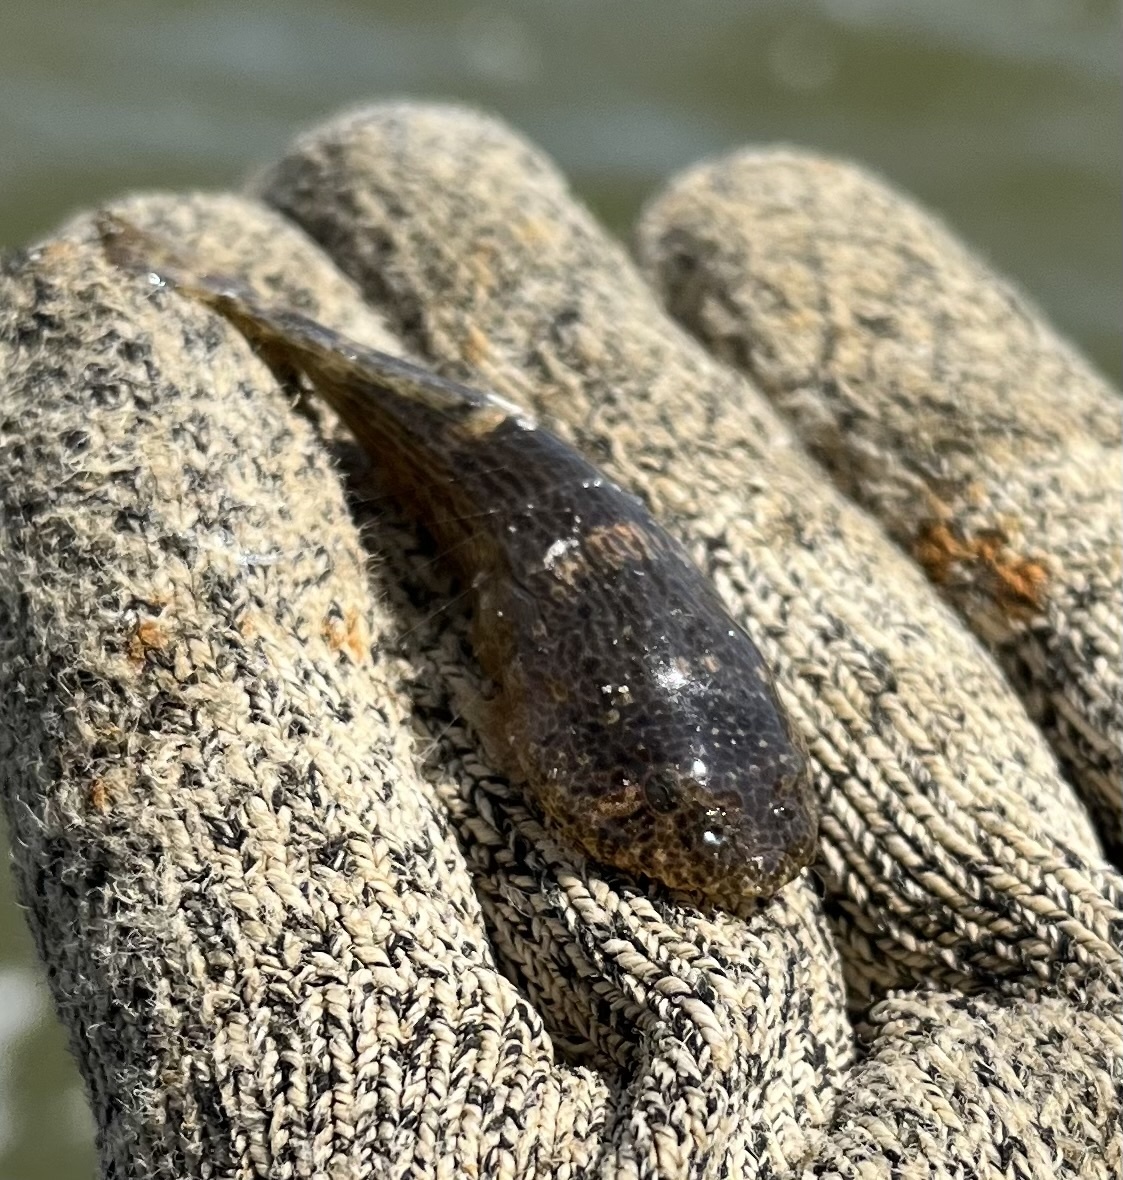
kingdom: Animalia
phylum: Chordata
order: Gobiesociformes
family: Gobiesocidae
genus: Gobiesox
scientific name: Gobiesox strumosus
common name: Skilletfish
